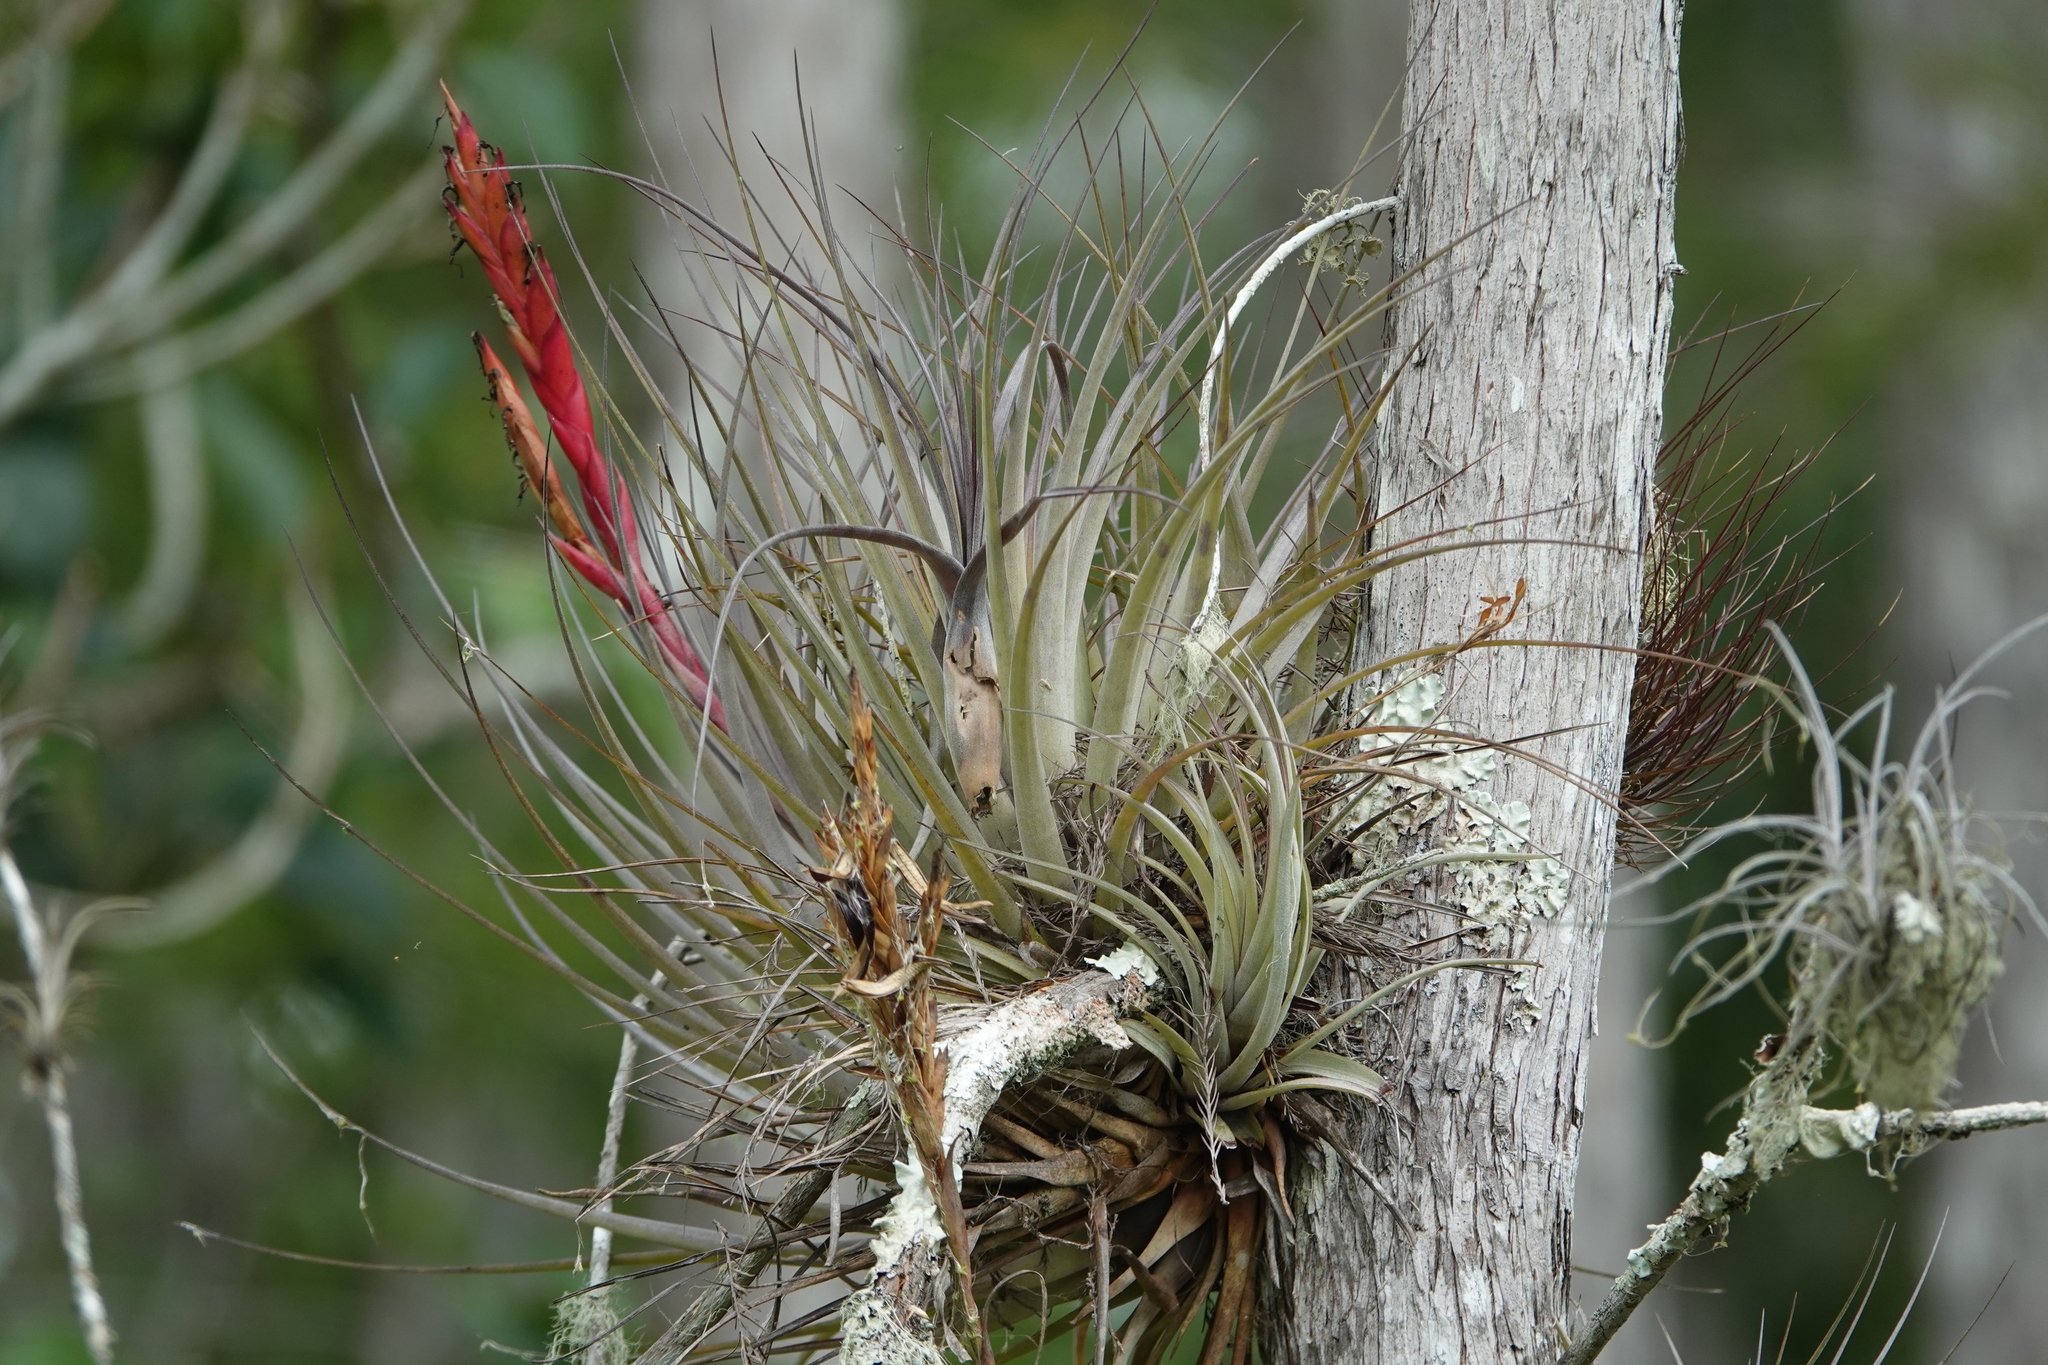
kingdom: Plantae
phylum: Tracheophyta
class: Liliopsida
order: Poales
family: Bromeliaceae
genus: Tillandsia
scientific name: Tillandsia fasciculata
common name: Giant airplant
